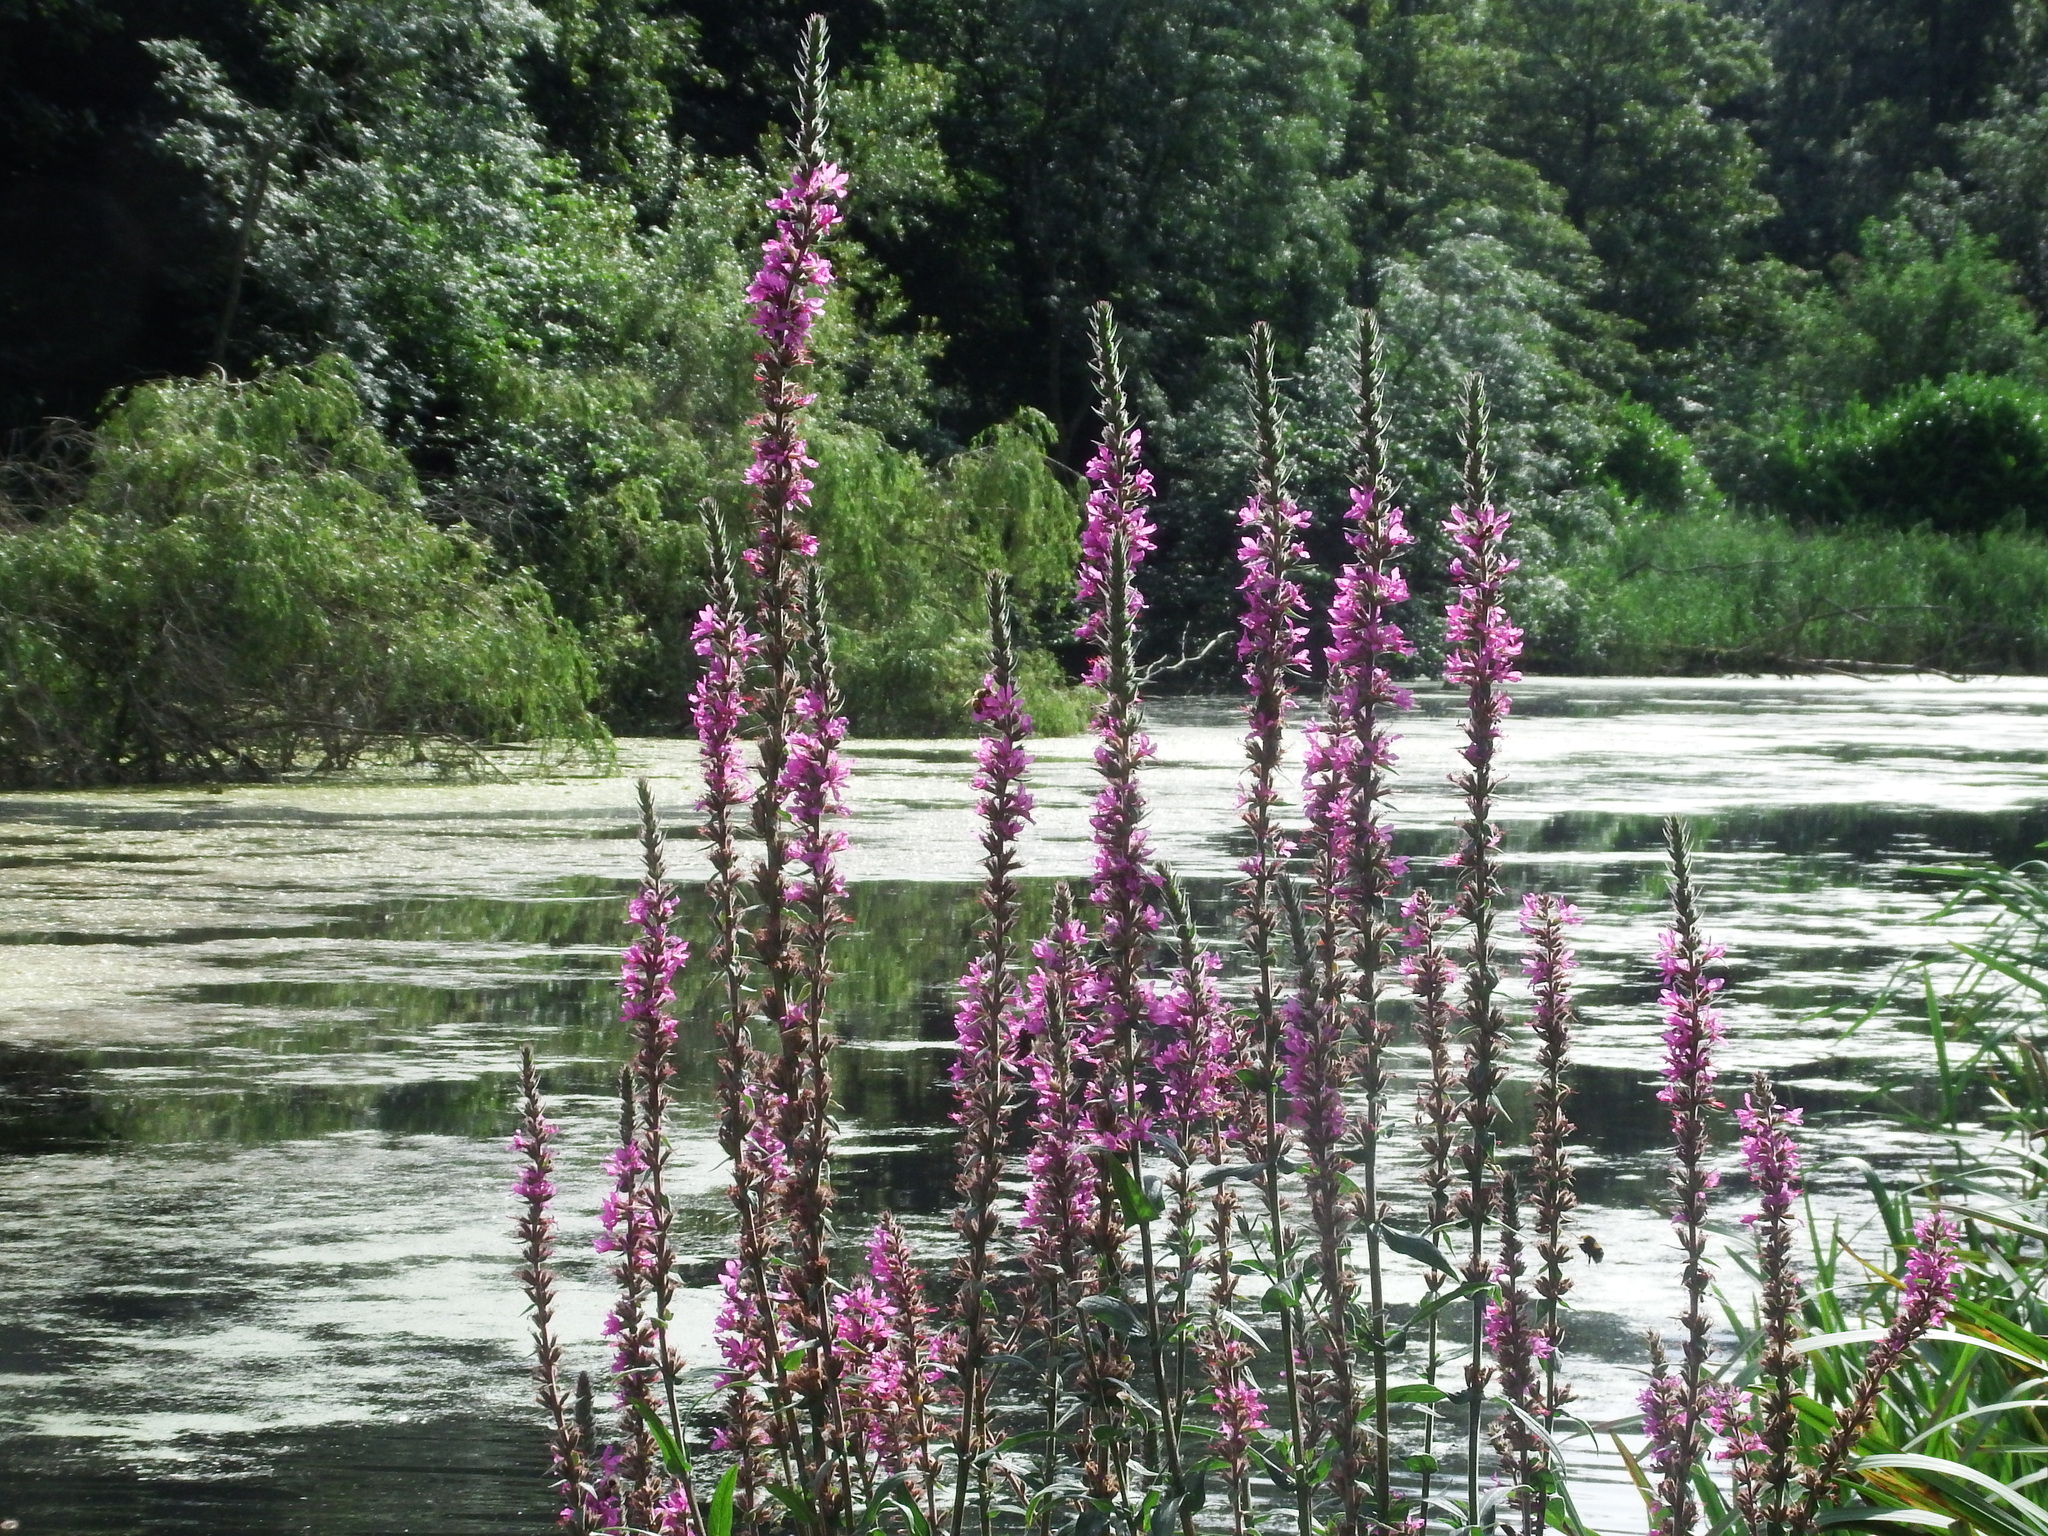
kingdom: Plantae
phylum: Tracheophyta
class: Magnoliopsida
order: Myrtales
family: Lythraceae
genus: Lythrum
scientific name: Lythrum salicaria
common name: Purple loosestrife
